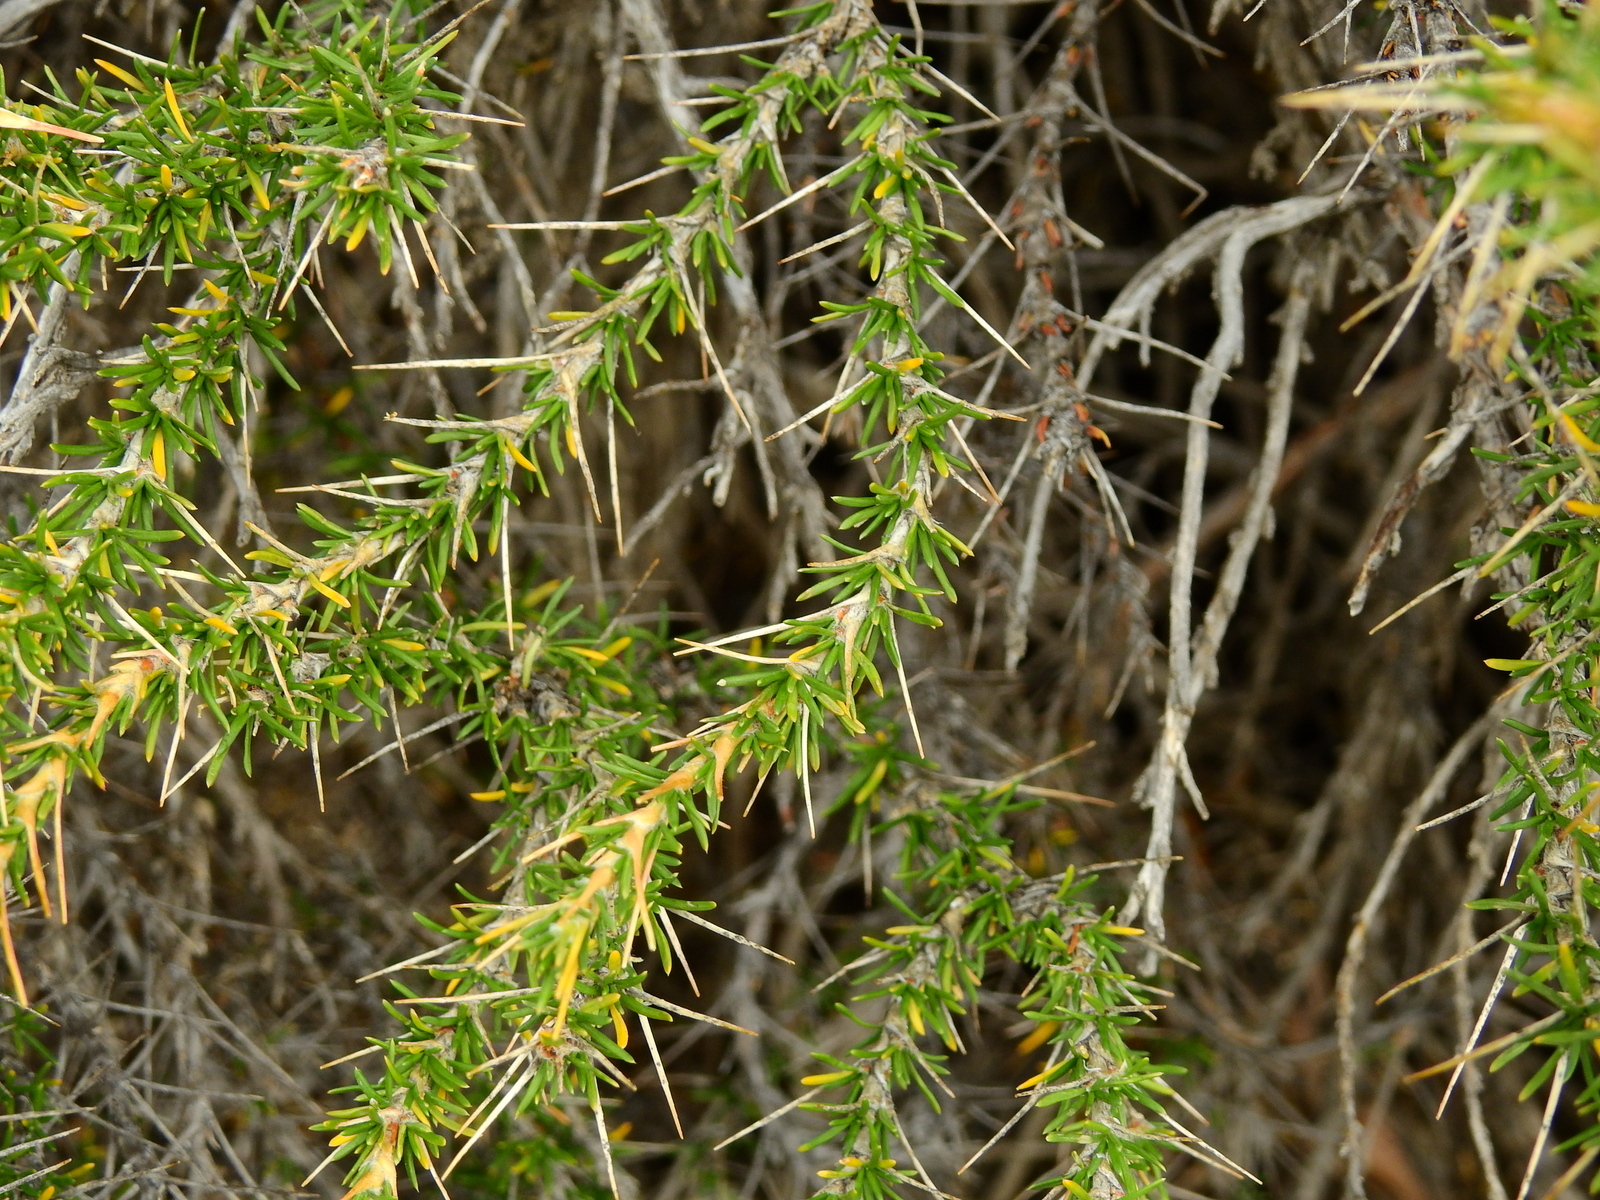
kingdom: Plantae
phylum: Tracheophyta
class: Magnoliopsida
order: Rosales
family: Rosaceae
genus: Margyricarpus
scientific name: Margyricarpus alatus
